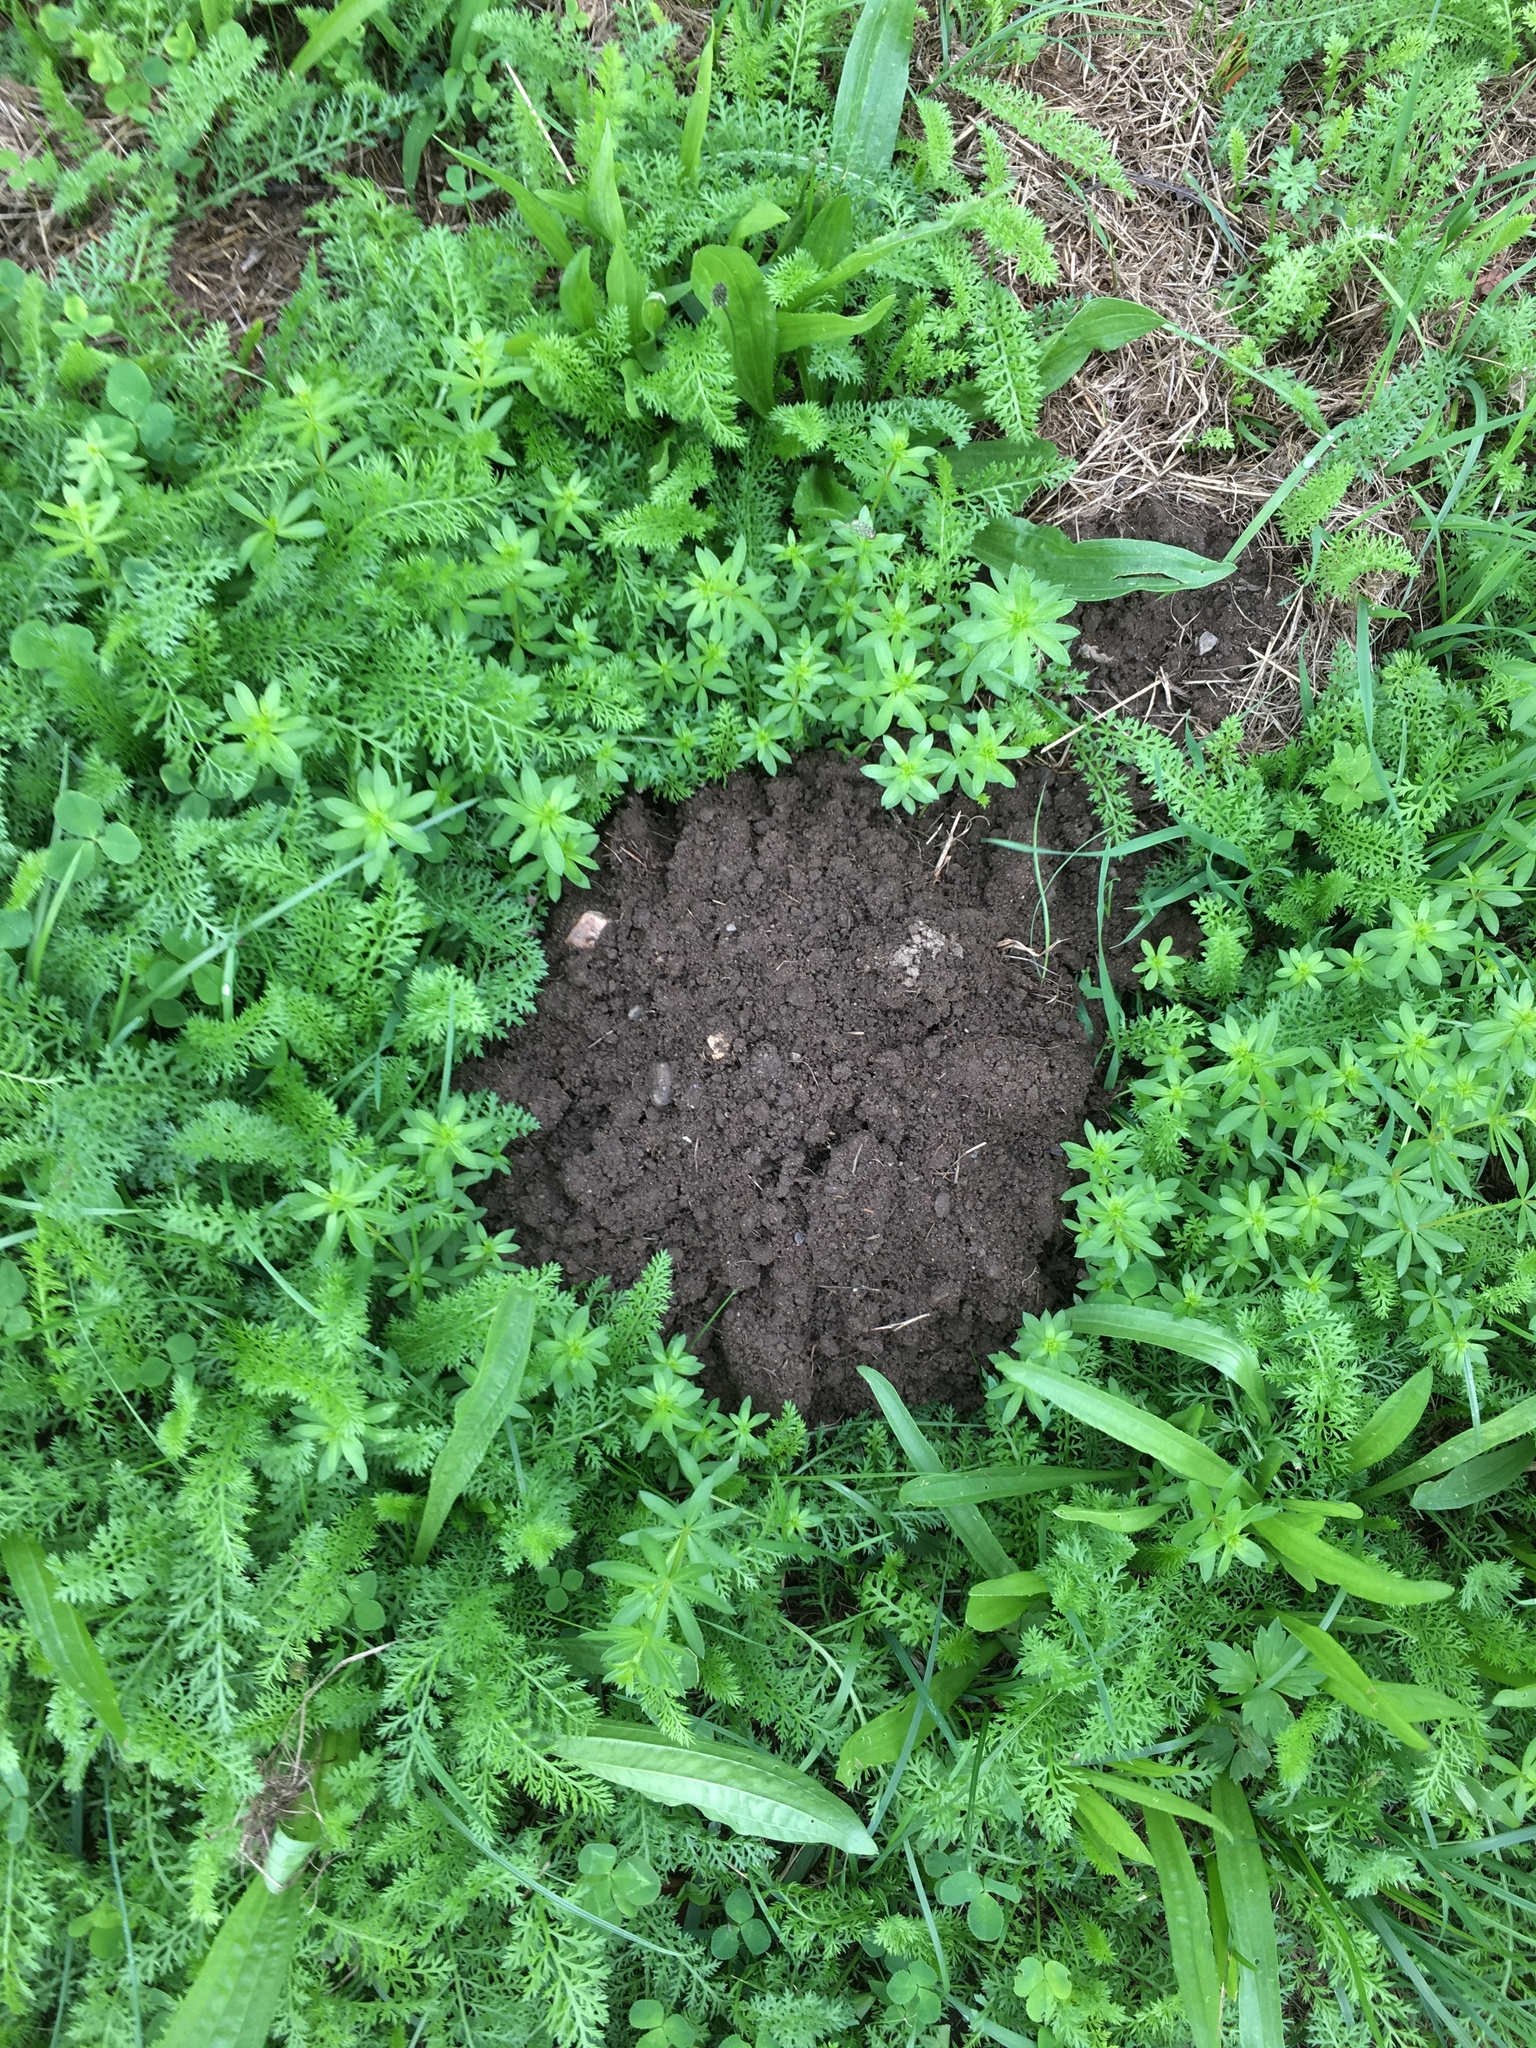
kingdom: Animalia
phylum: Chordata
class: Mammalia
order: Soricomorpha
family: Talpidae
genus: Talpa
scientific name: Talpa europaea
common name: European mole
